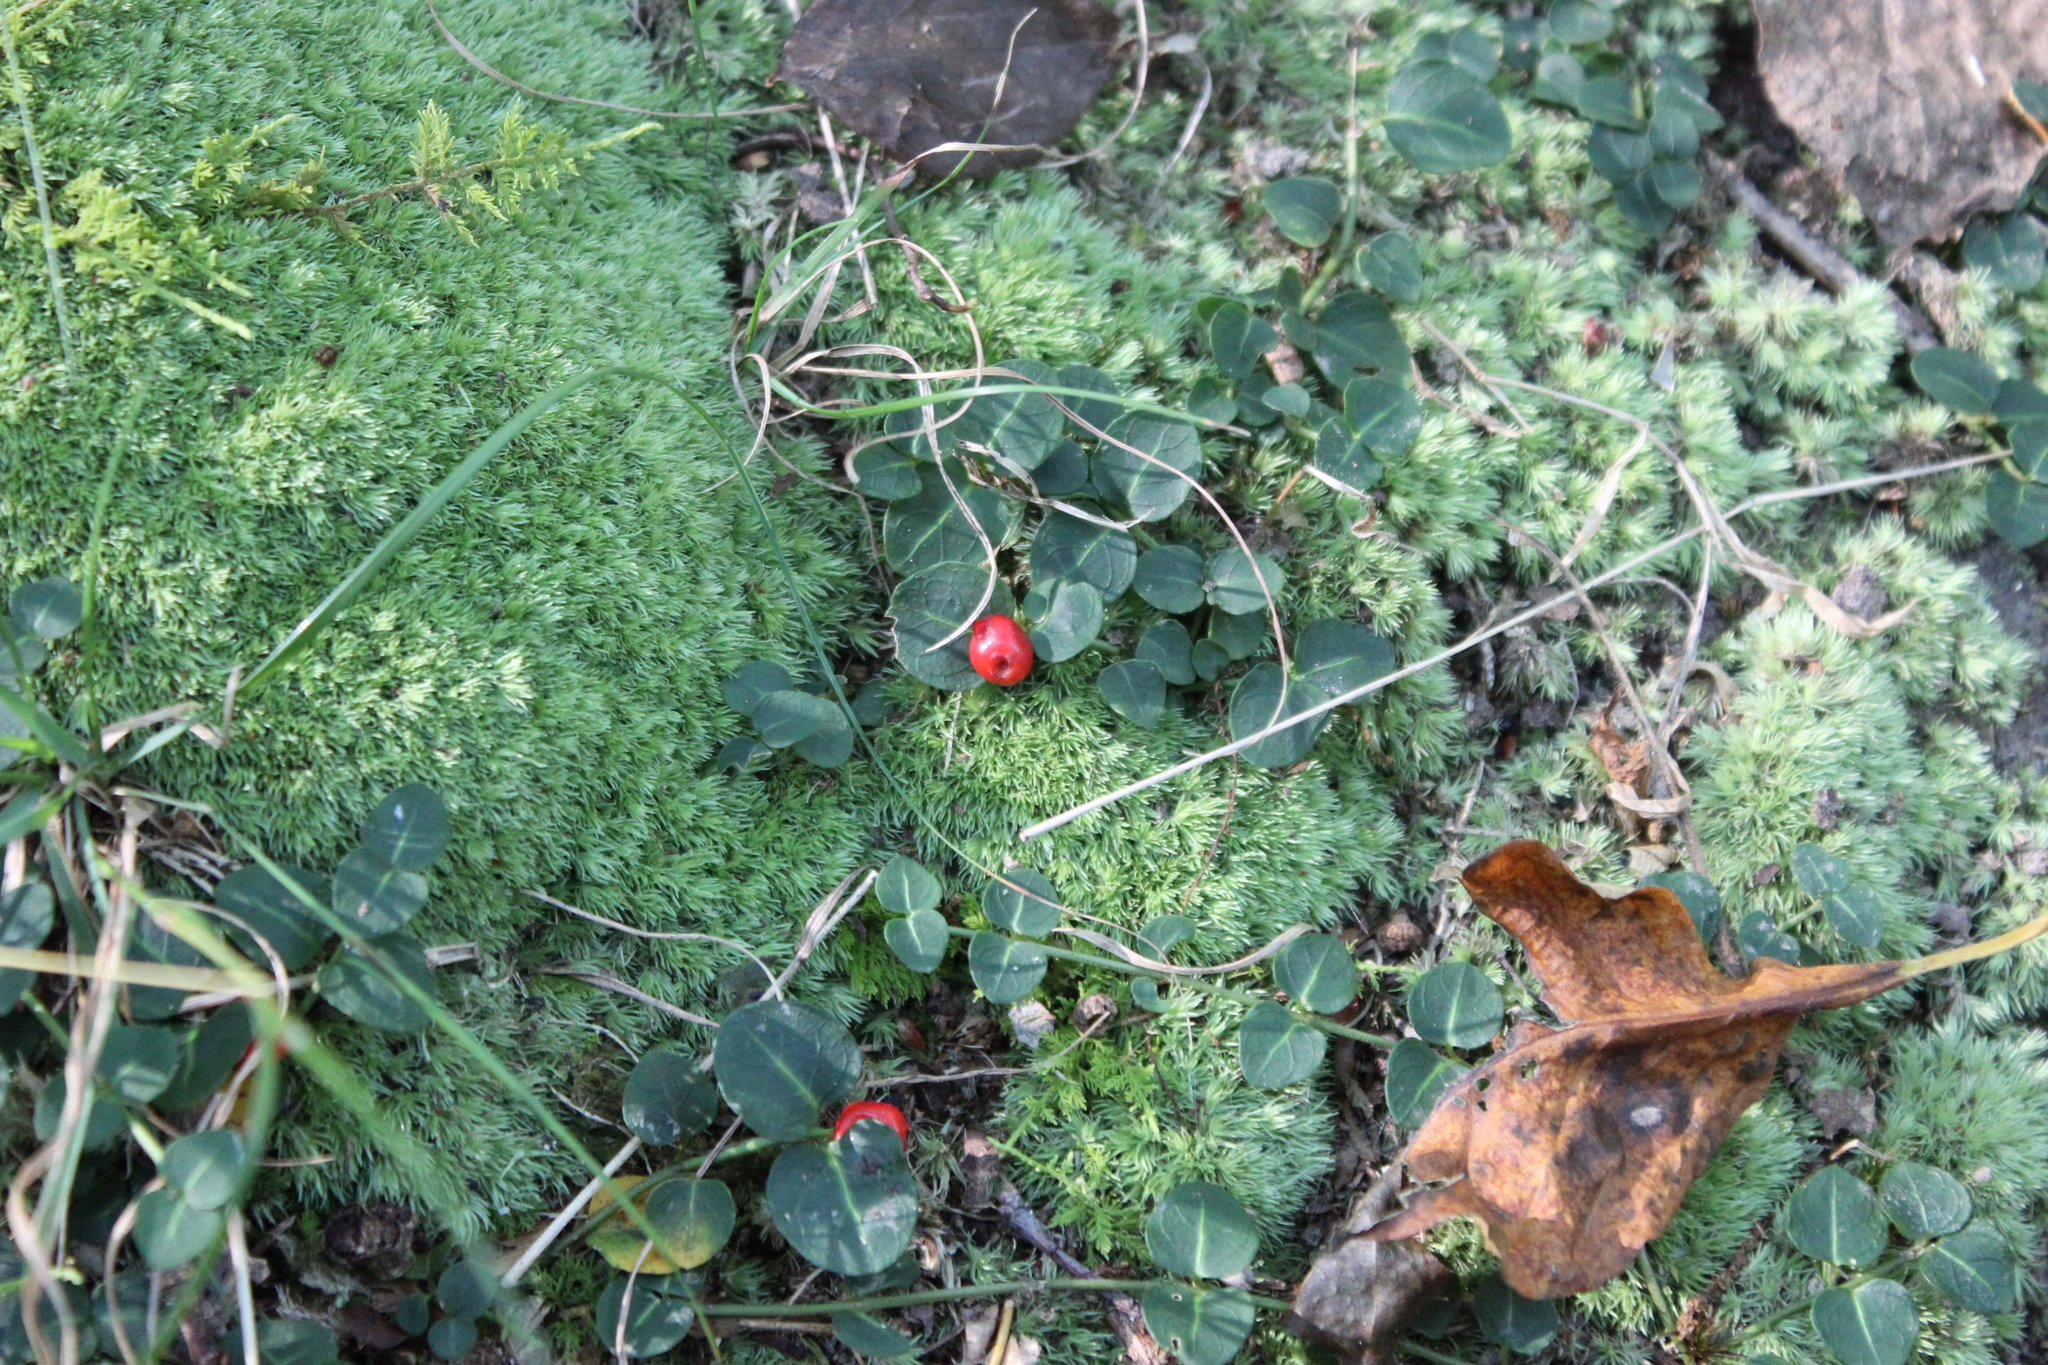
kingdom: Plantae
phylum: Tracheophyta
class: Magnoliopsida
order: Gentianales
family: Rubiaceae
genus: Mitchella
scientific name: Mitchella repens
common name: Partridge-berry
